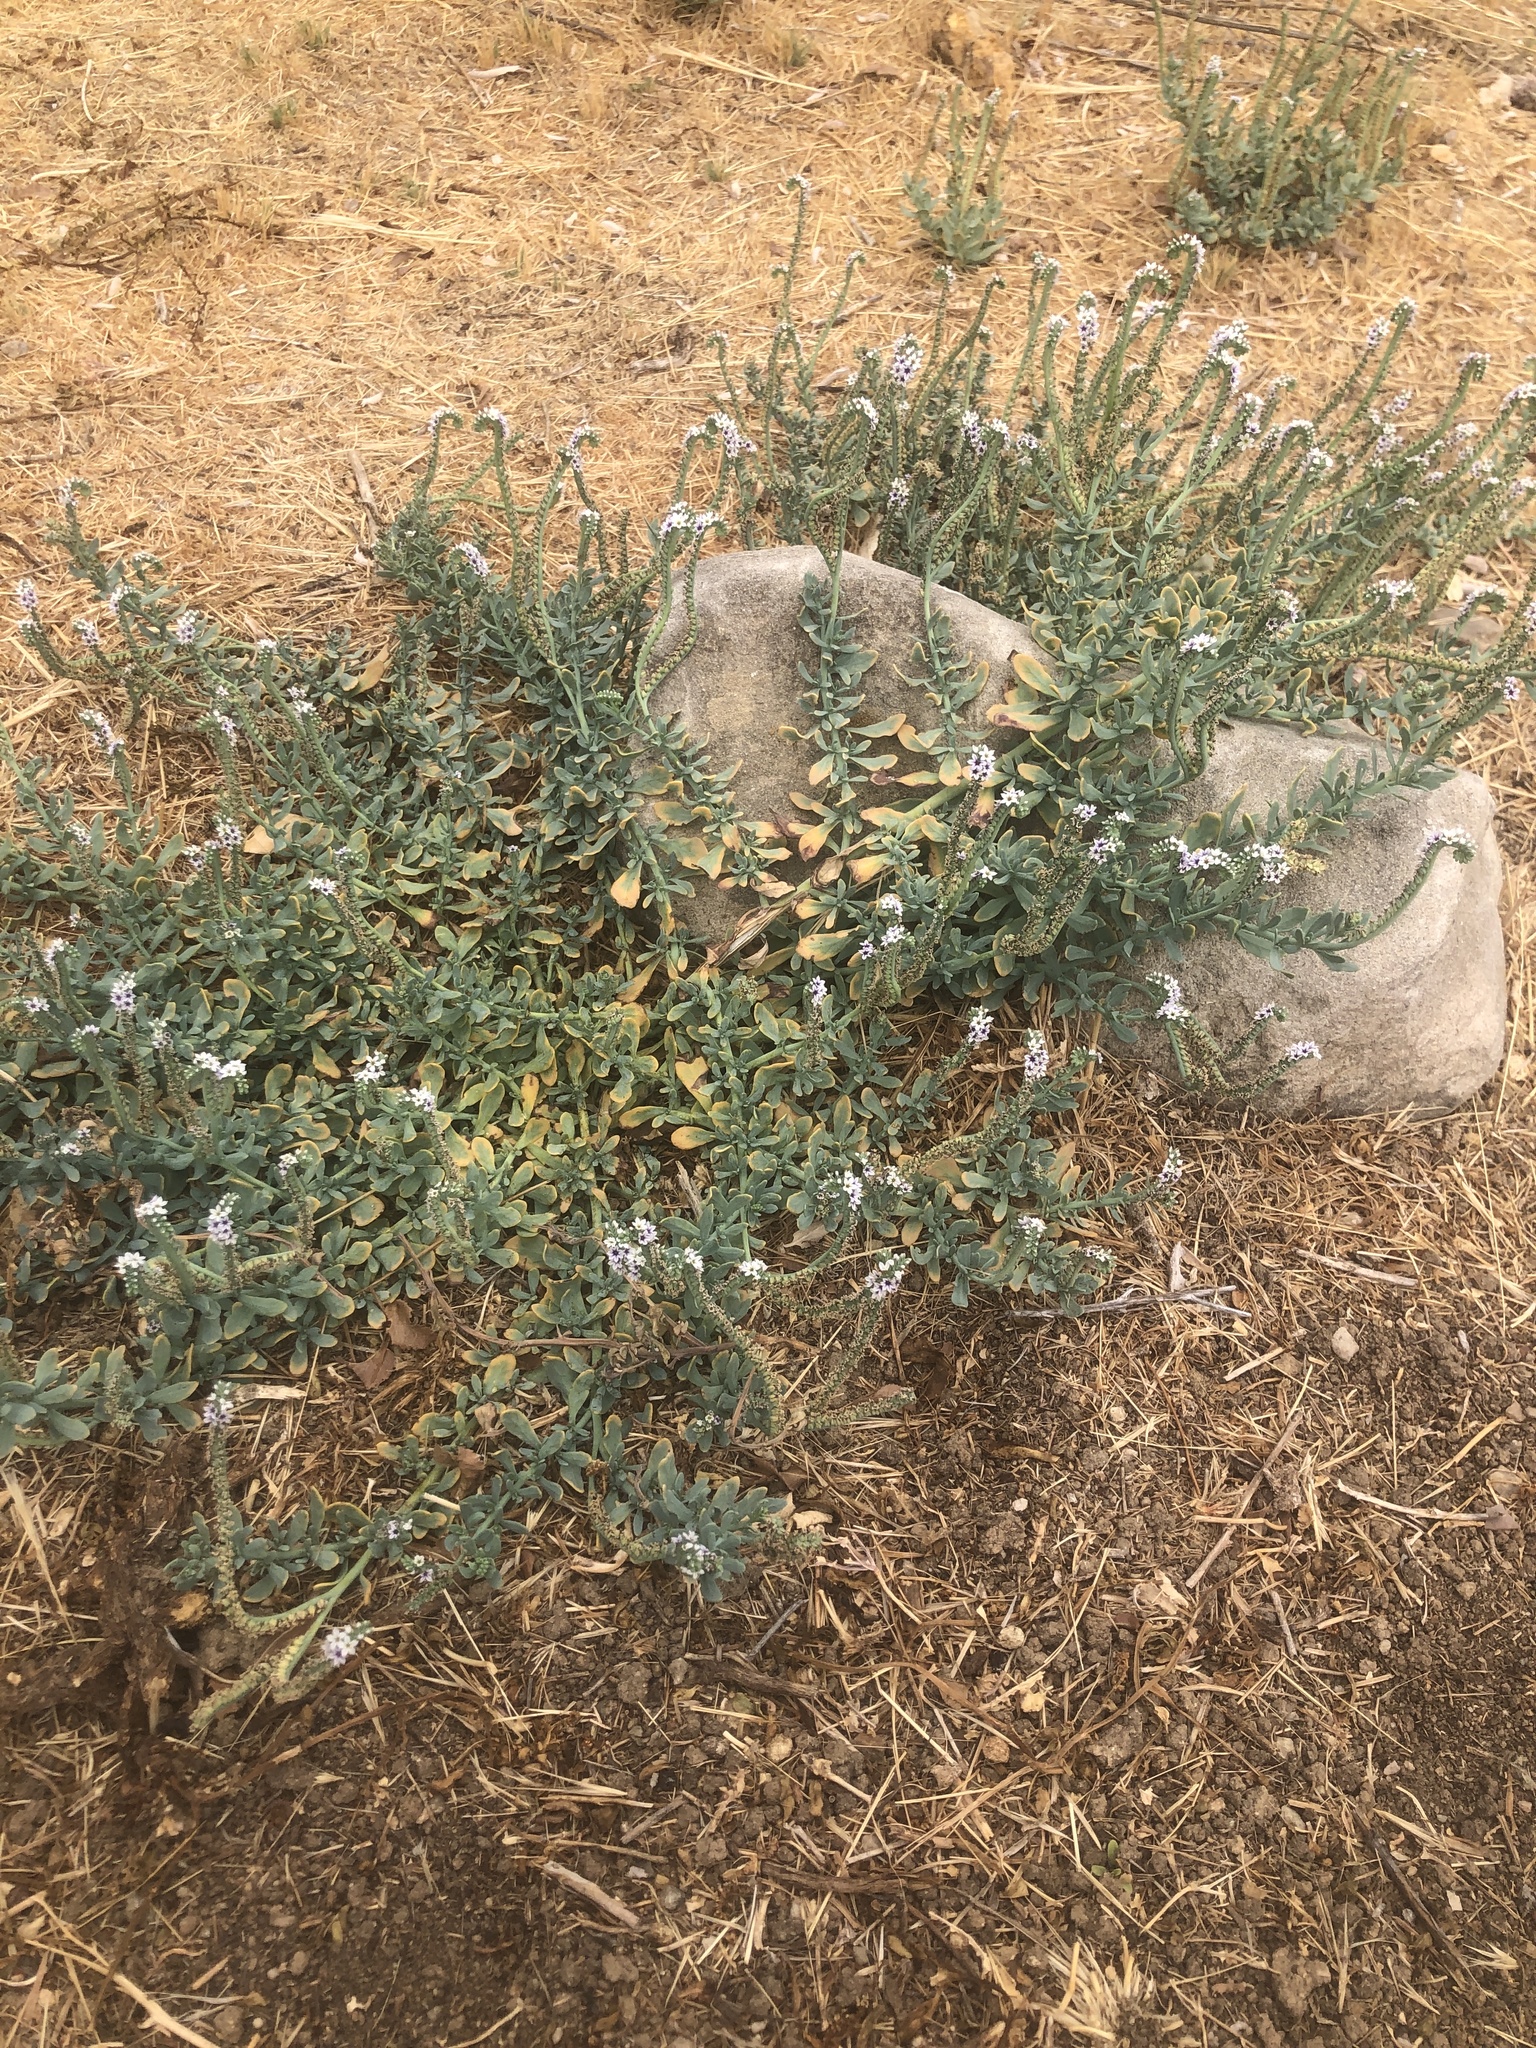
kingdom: Plantae
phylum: Tracheophyta
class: Magnoliopsida
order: Boraginales
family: Heliotropiaceae
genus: Heliotropium
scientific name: Heliotropium curassavicum
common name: Seaside heliotrope
